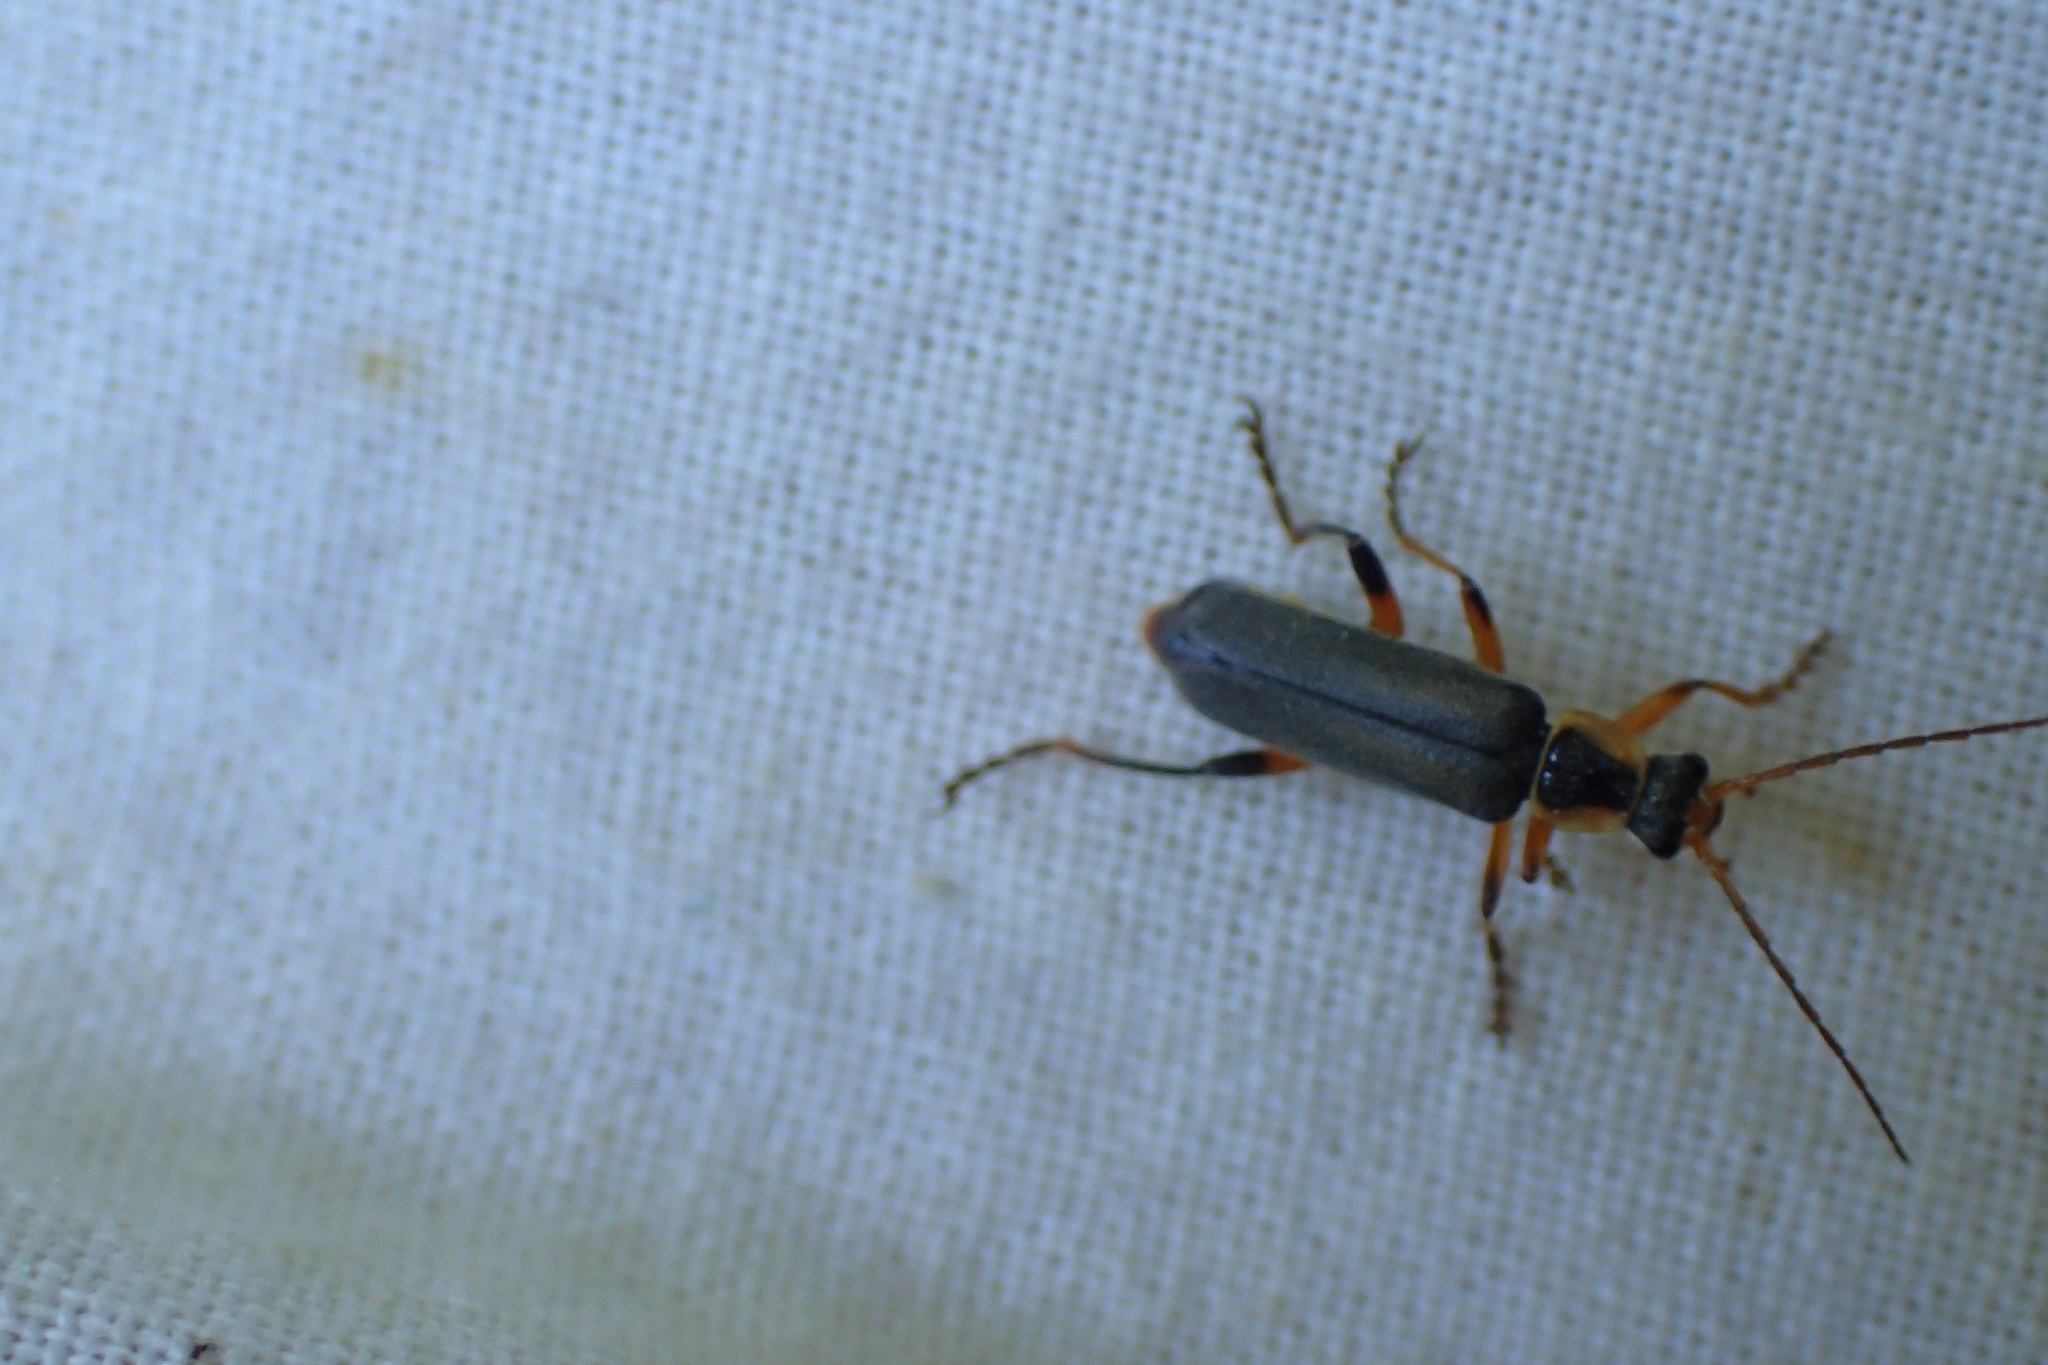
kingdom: Animalia
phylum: Arthropoda
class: Insecta
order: Coleoptera
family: Cantharidae
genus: Cantharis
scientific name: Cantharis nigricans
